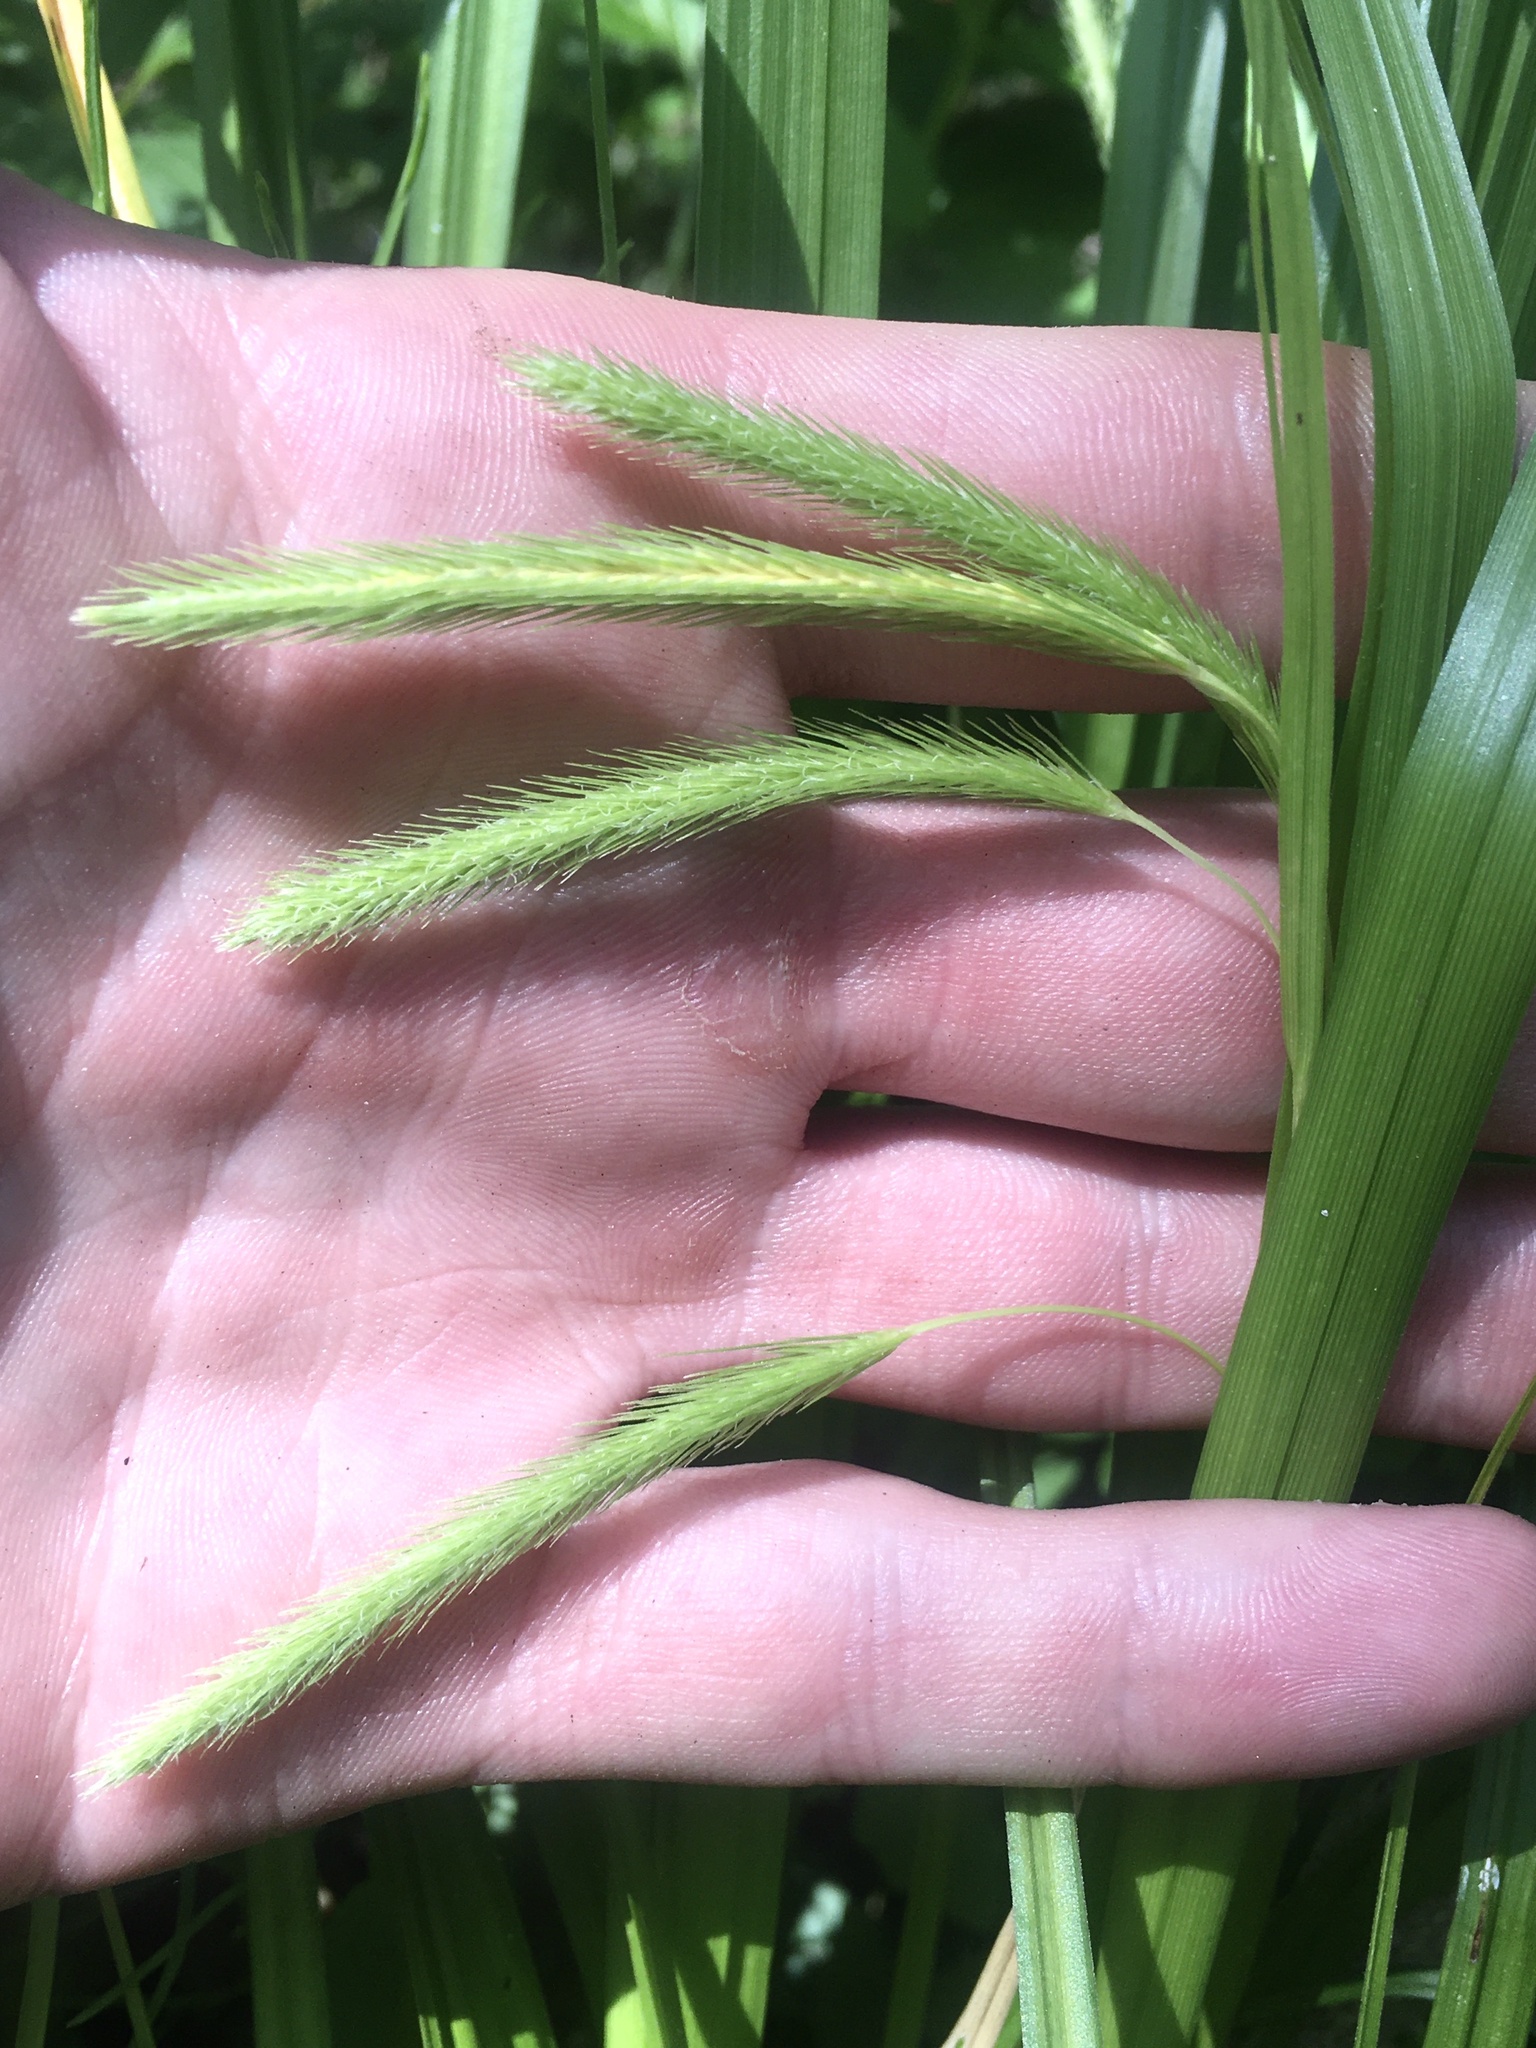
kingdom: Plantae
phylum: Tracheophyta
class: Liliopsida
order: Poales
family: Cyperaceae
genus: Carex
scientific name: Carex crinita
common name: Fringed sedge
